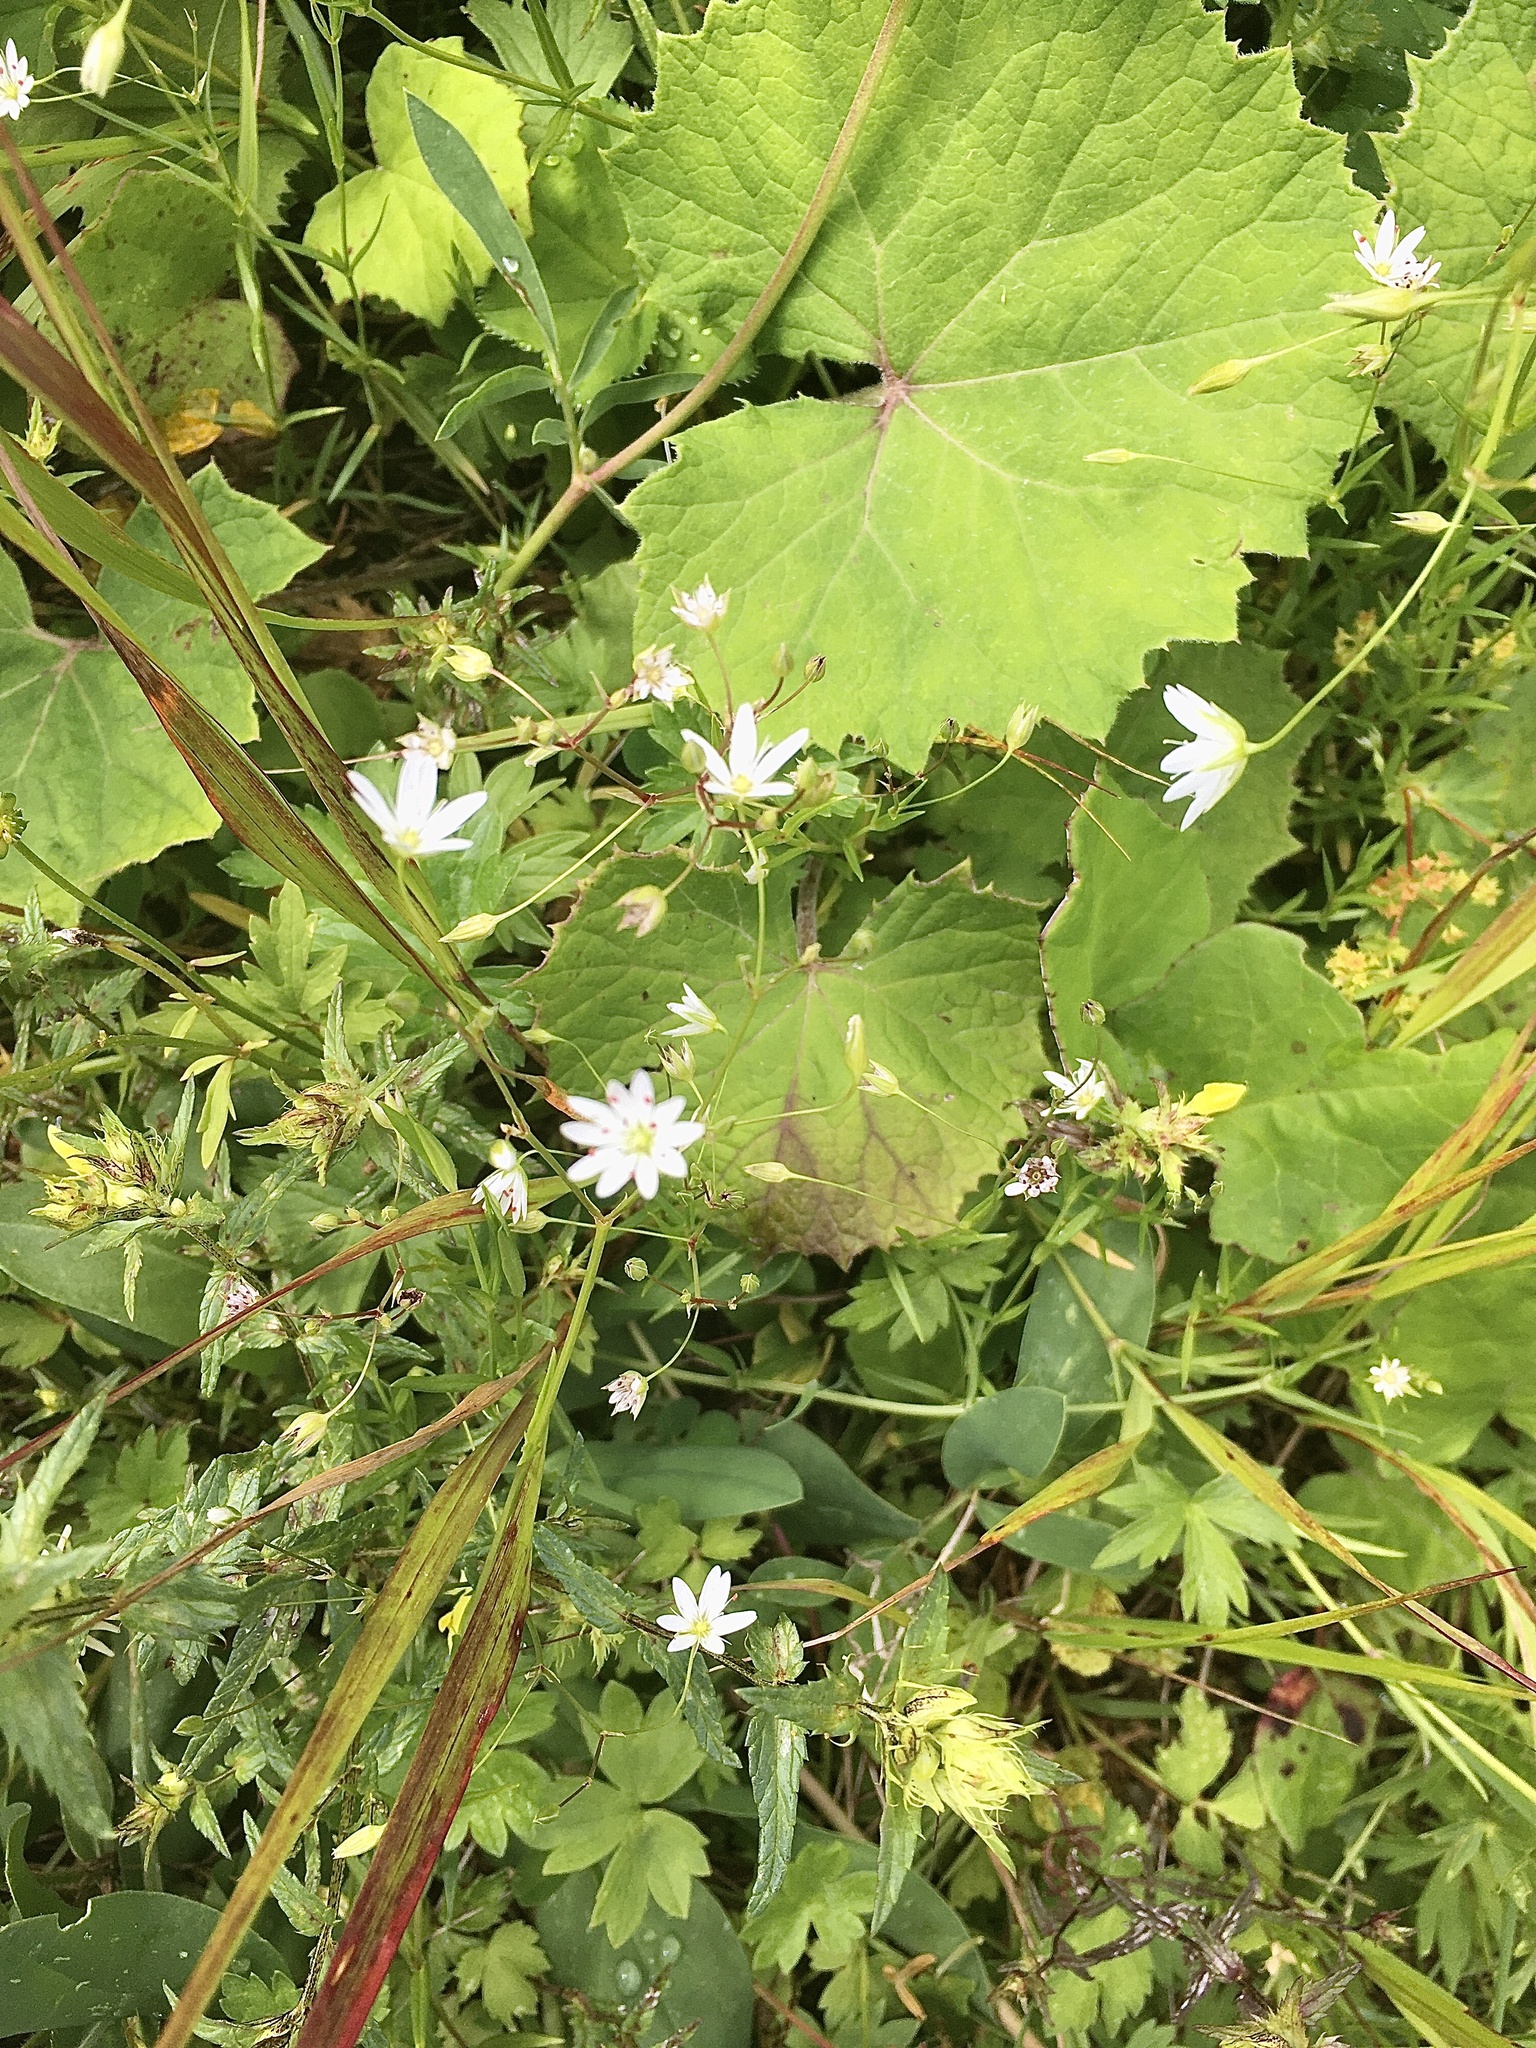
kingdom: Plantae
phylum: Tracheophyta
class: Magnoliopsida
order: Caryophyllales
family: Caryophyllaceae
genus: Stellaria
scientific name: Stellaria graminea
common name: Grass-like starwort
